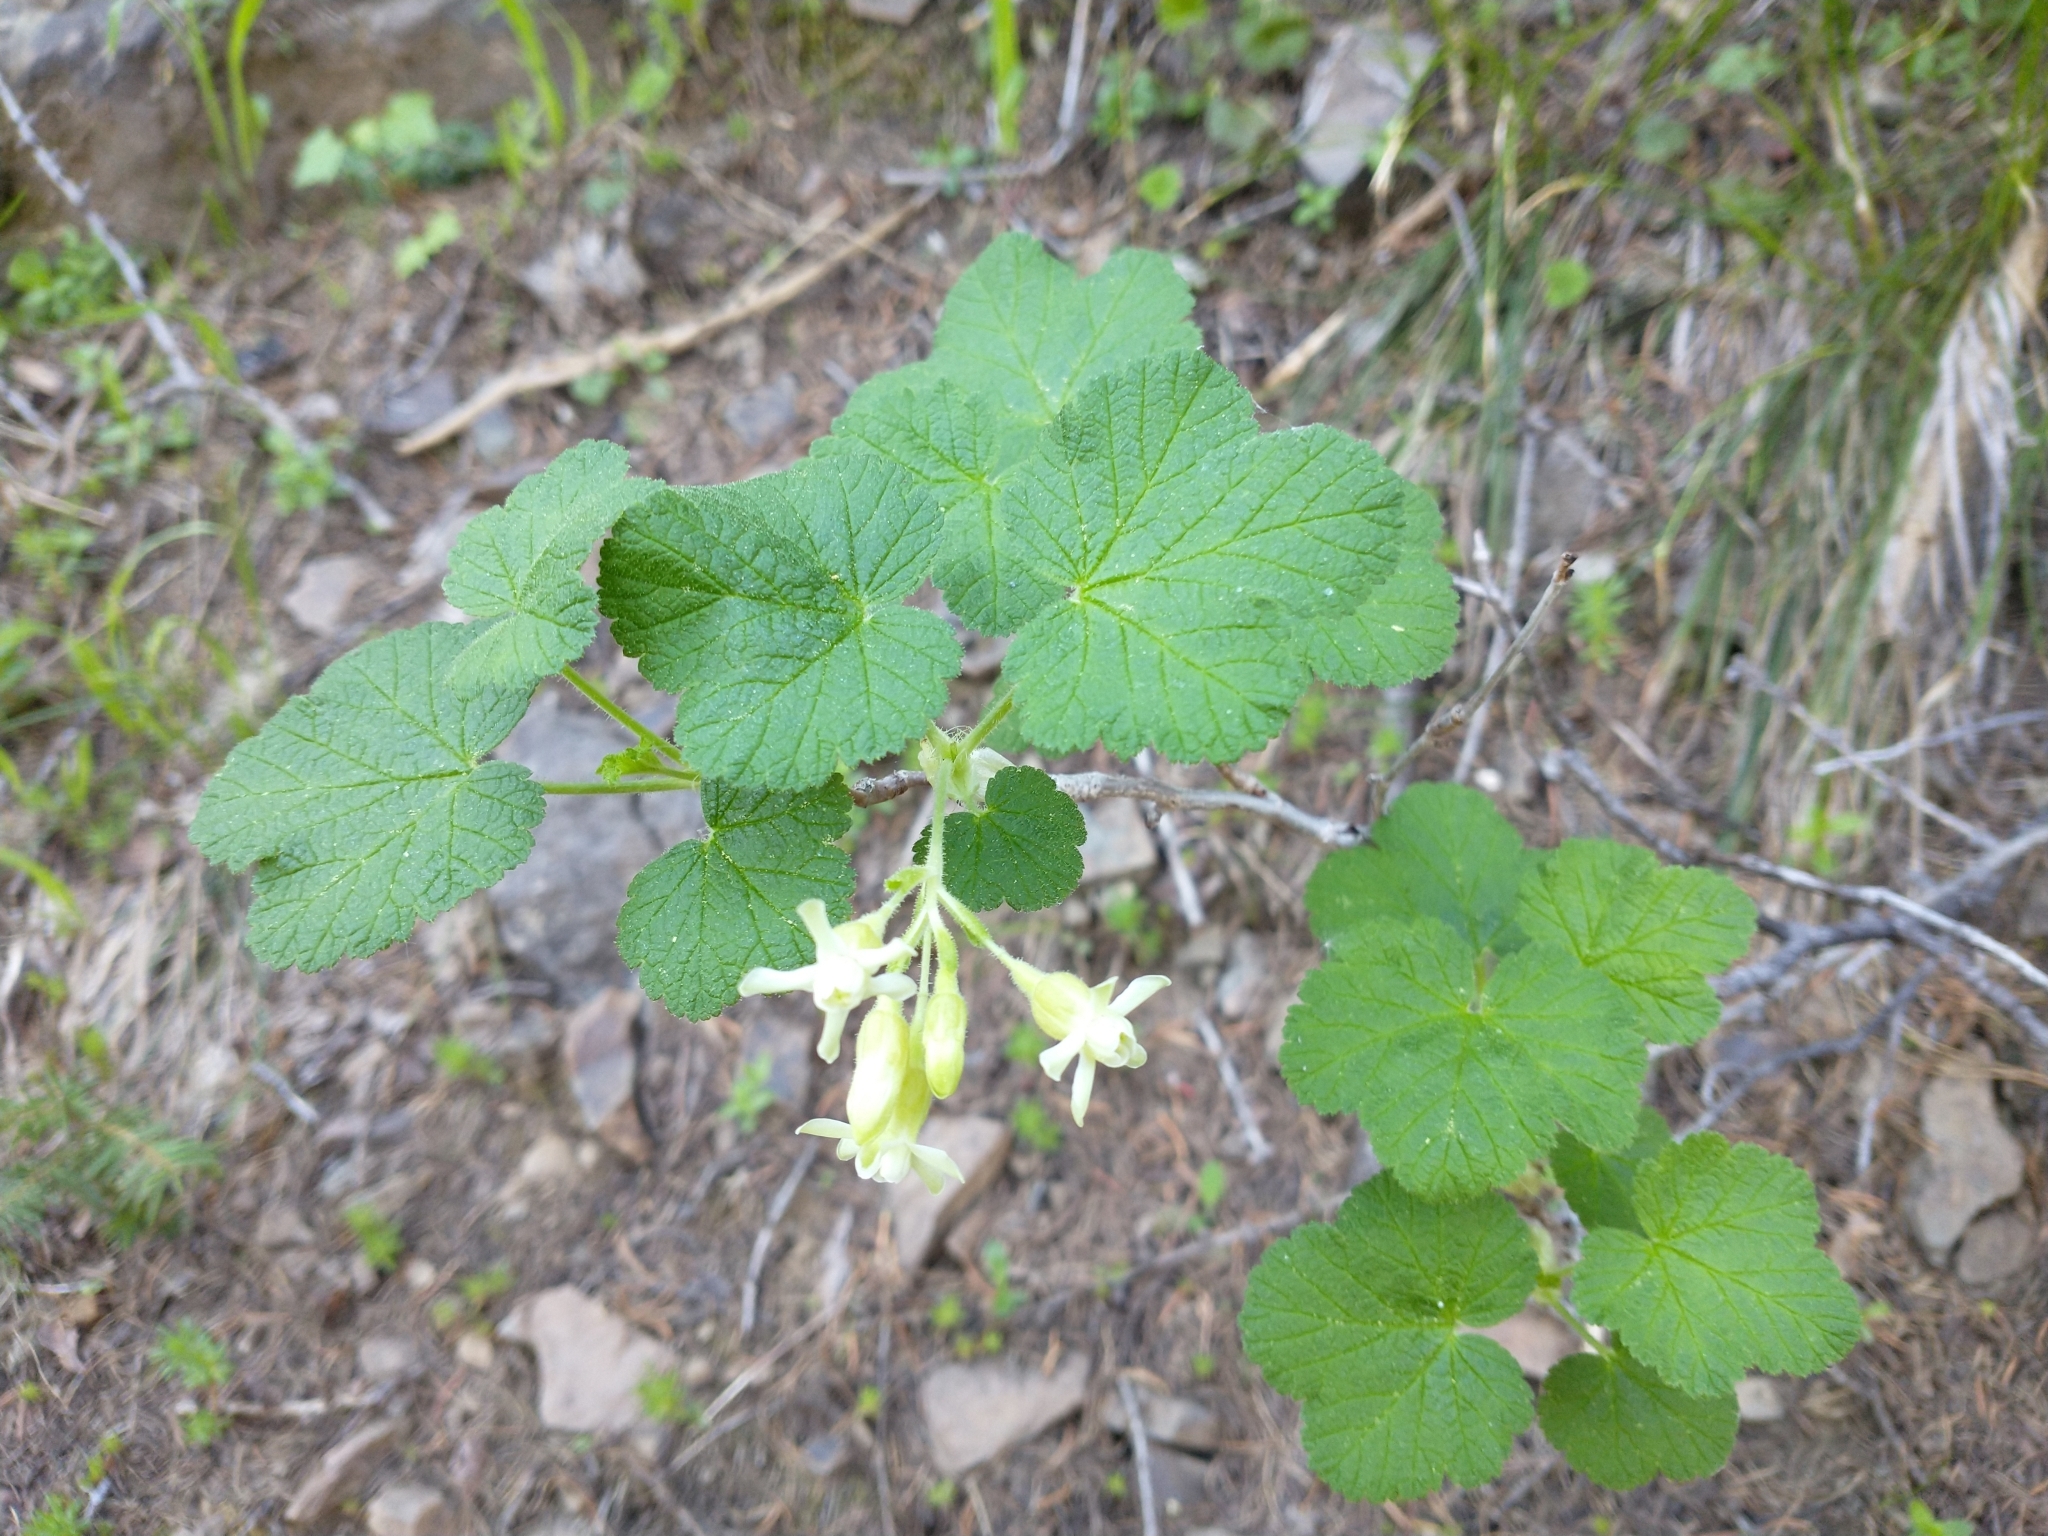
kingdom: Plantae
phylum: Tracheophyta
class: Magnoliopsida
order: Saxifragales
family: Grossulariaceae
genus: Ribes
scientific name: Ribes viscosissimum
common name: Sticky currant
